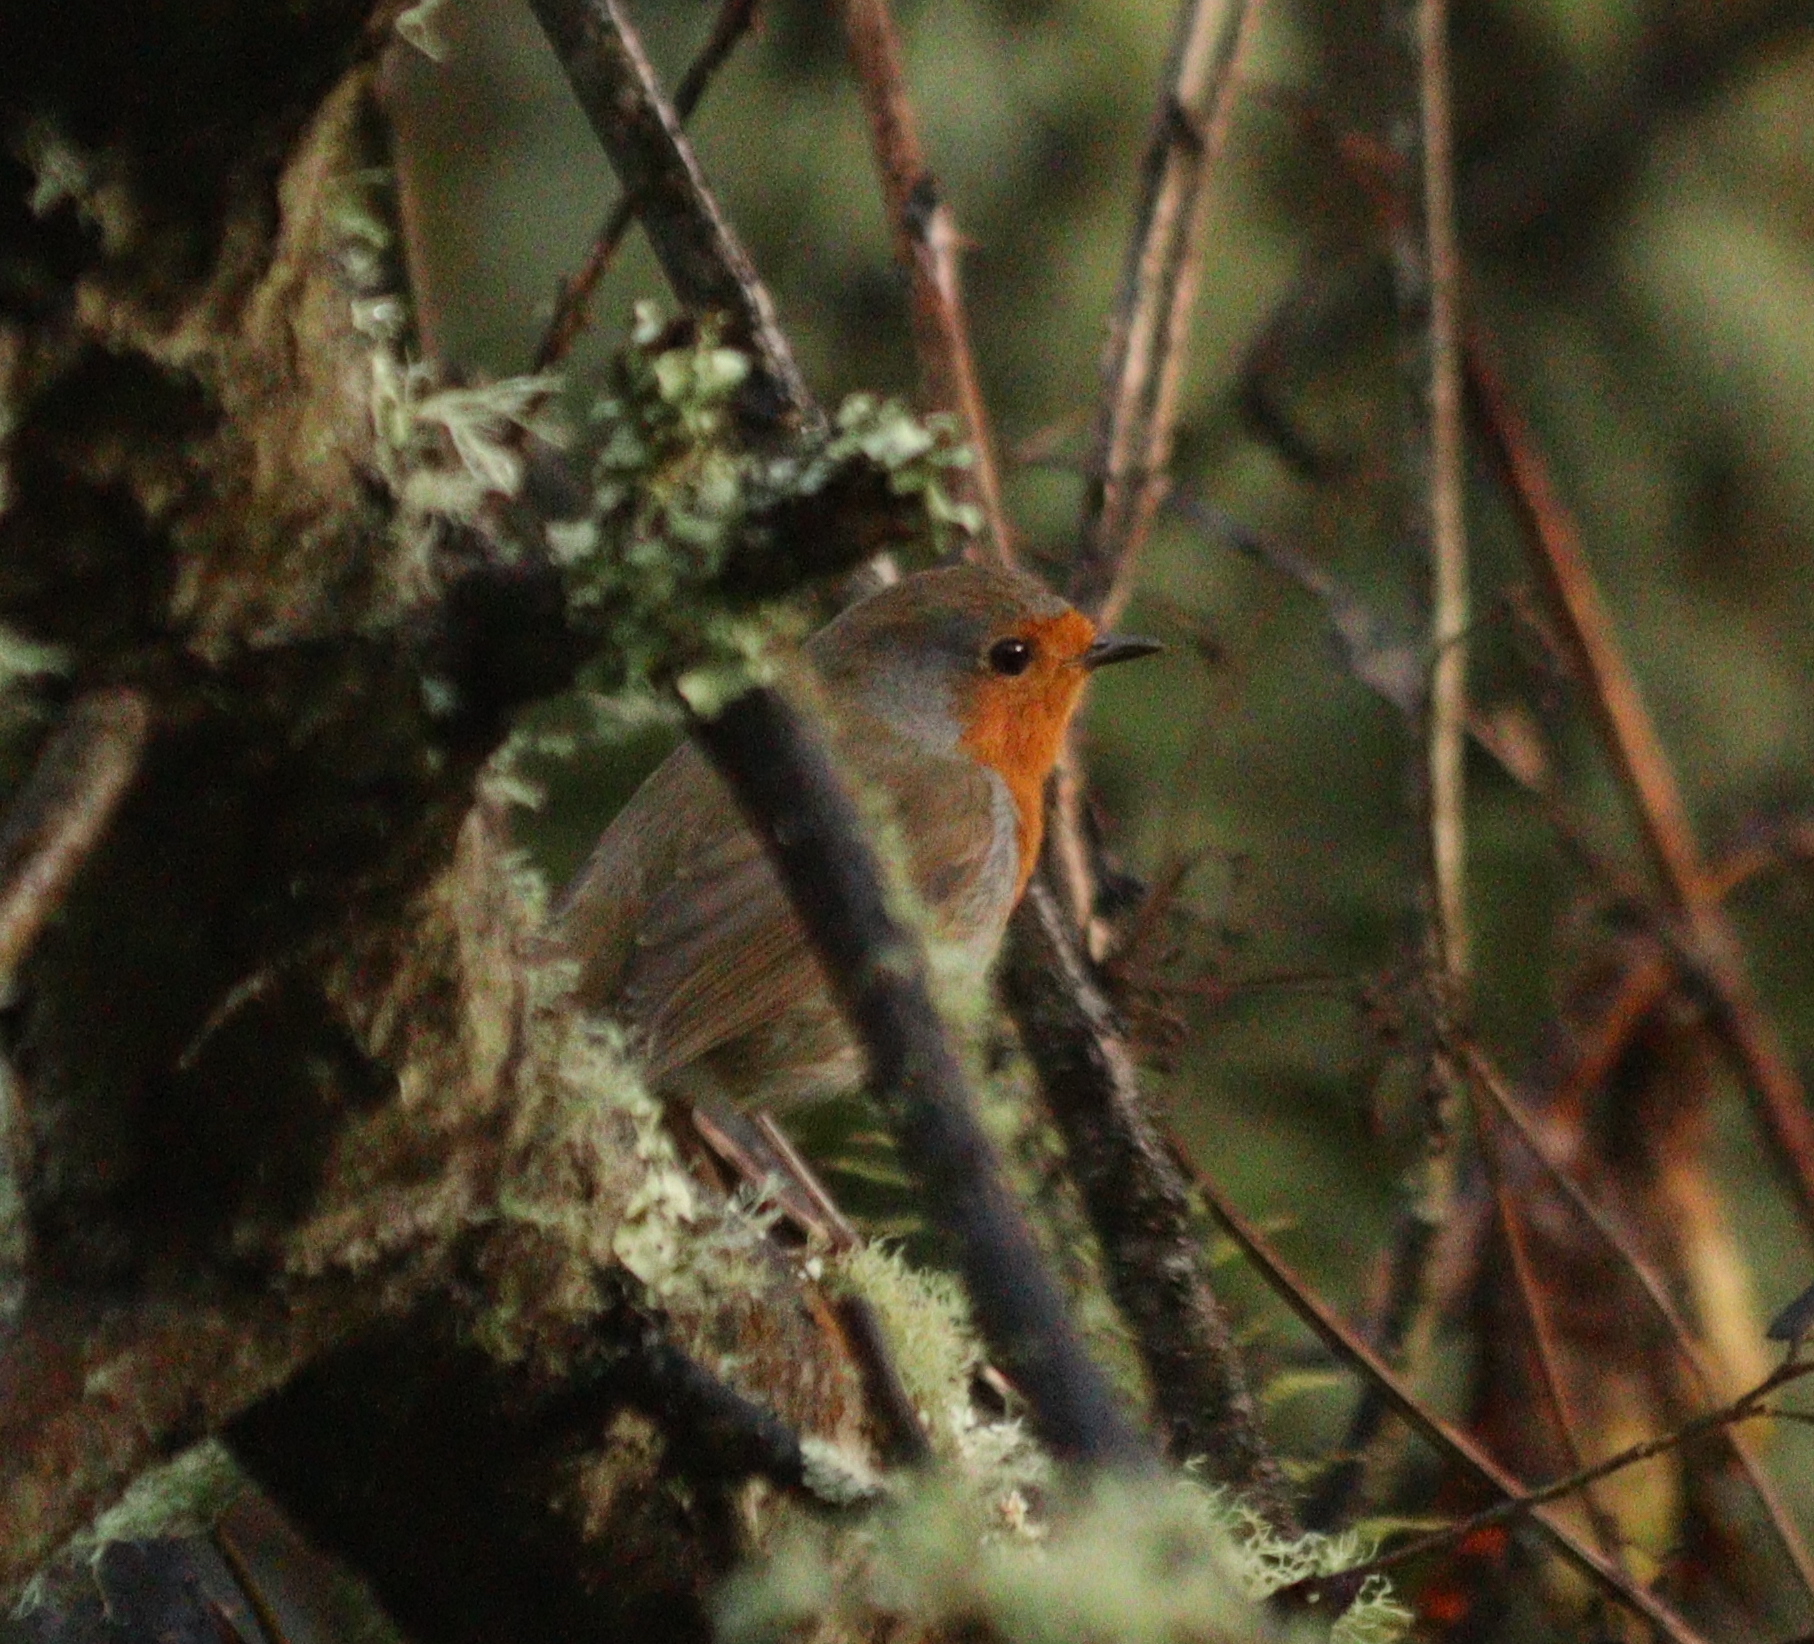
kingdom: Animalia
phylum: Chordata
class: Aves
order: Passeriformes
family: Muscicapidae
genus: Erithacus
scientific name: Erithacus rubecula
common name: European robin
